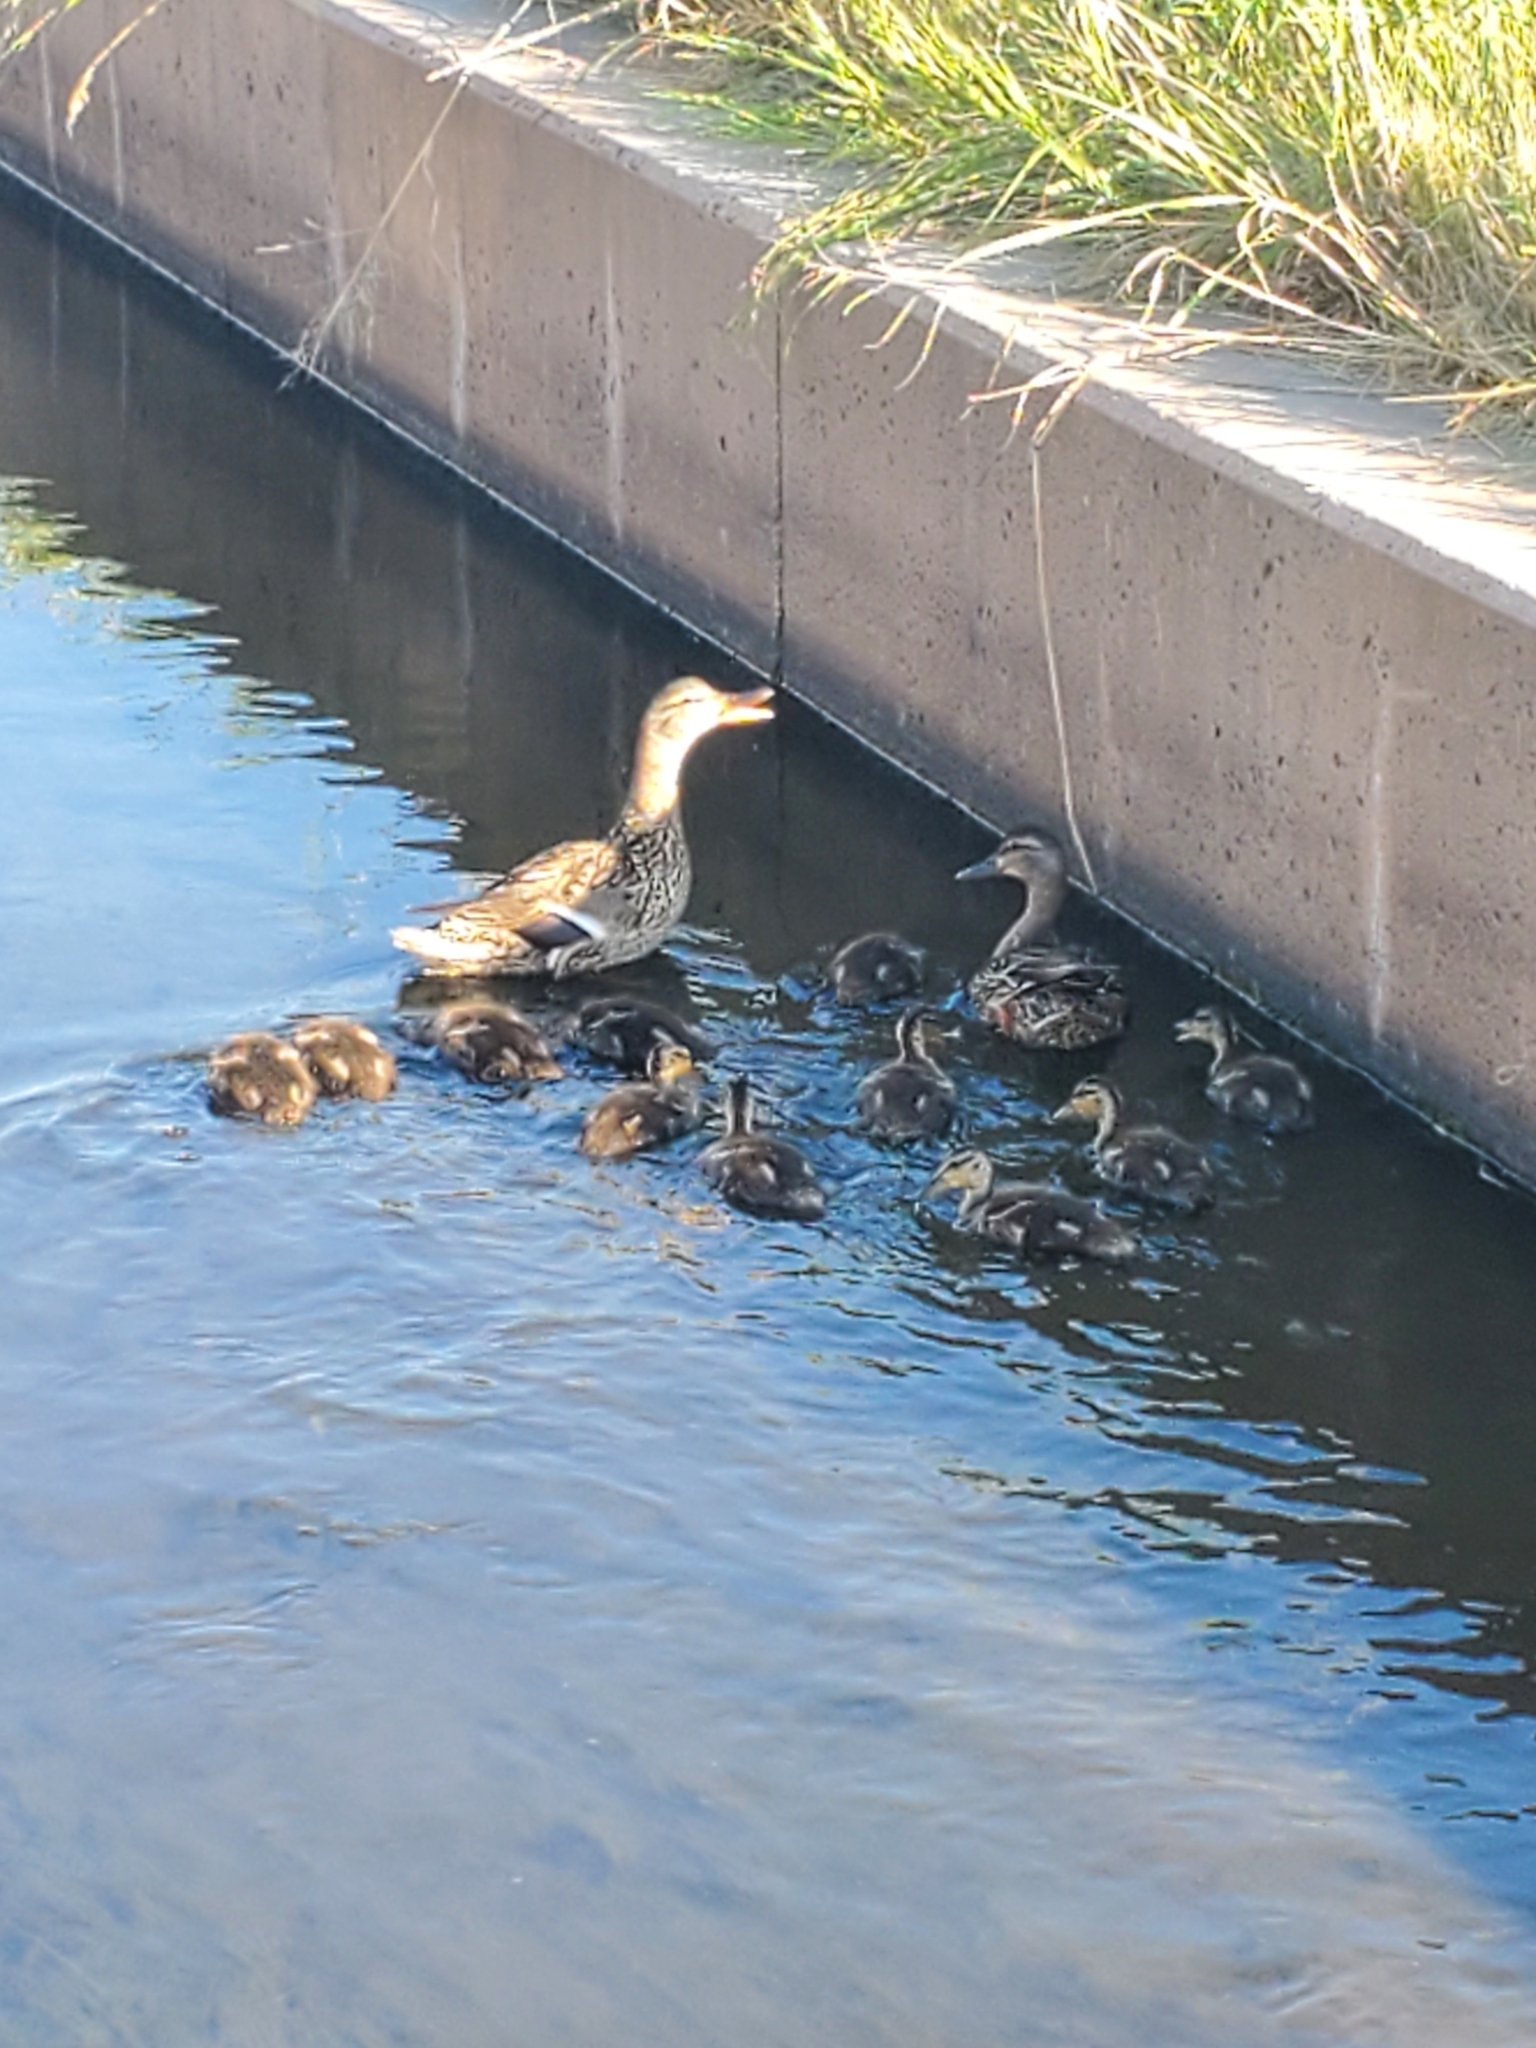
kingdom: Animalia
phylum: Chordata
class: Aves
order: Anseriformes
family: Anatidae
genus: Anas
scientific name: Anas platyrhynchos
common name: Mallard
